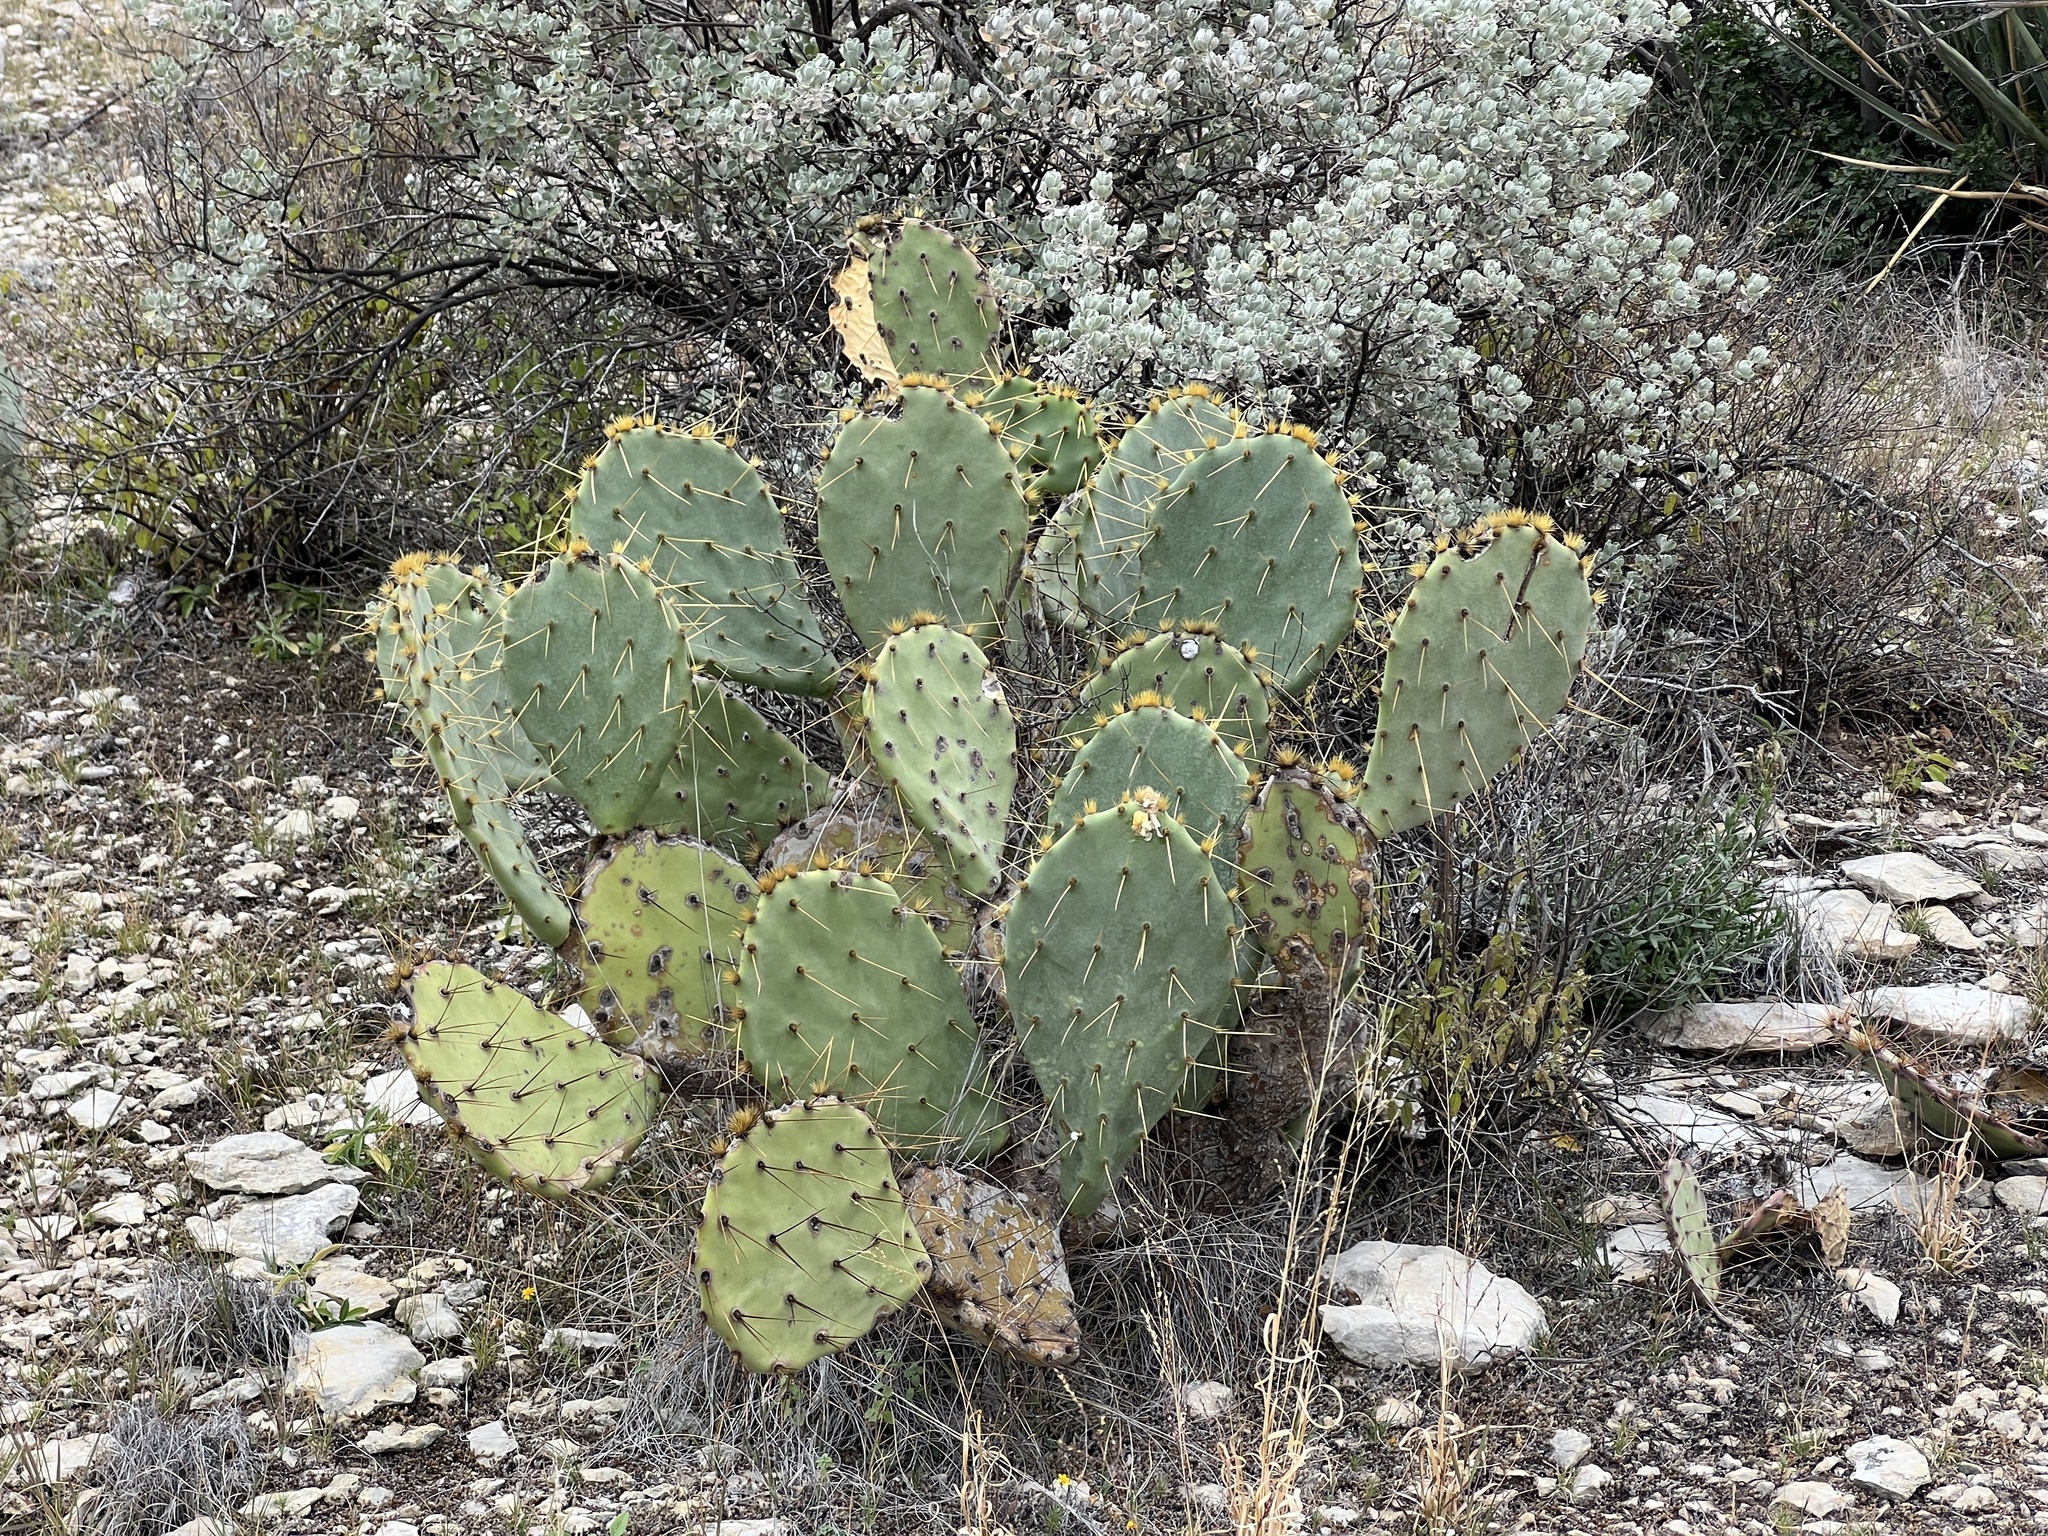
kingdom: Plantae
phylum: Tracheophyta
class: Magnoliopsida
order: Caryophyllales
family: Cactaceae
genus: Opuntia
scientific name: Opuntia engelmannii
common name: Cactus-apple
